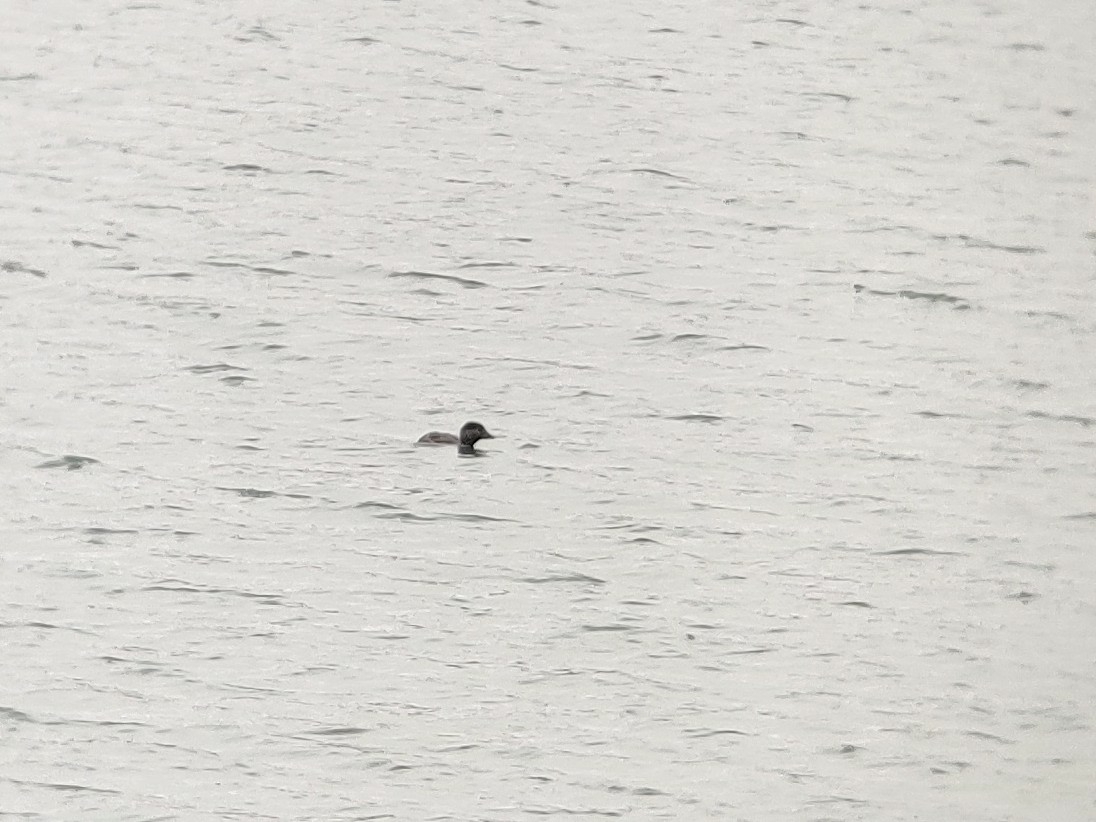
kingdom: Animalia
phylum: Chordata
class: Aves
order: Anseriformes
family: Anatidae
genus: Biziura
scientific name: Biziura lobata
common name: Musk duck
